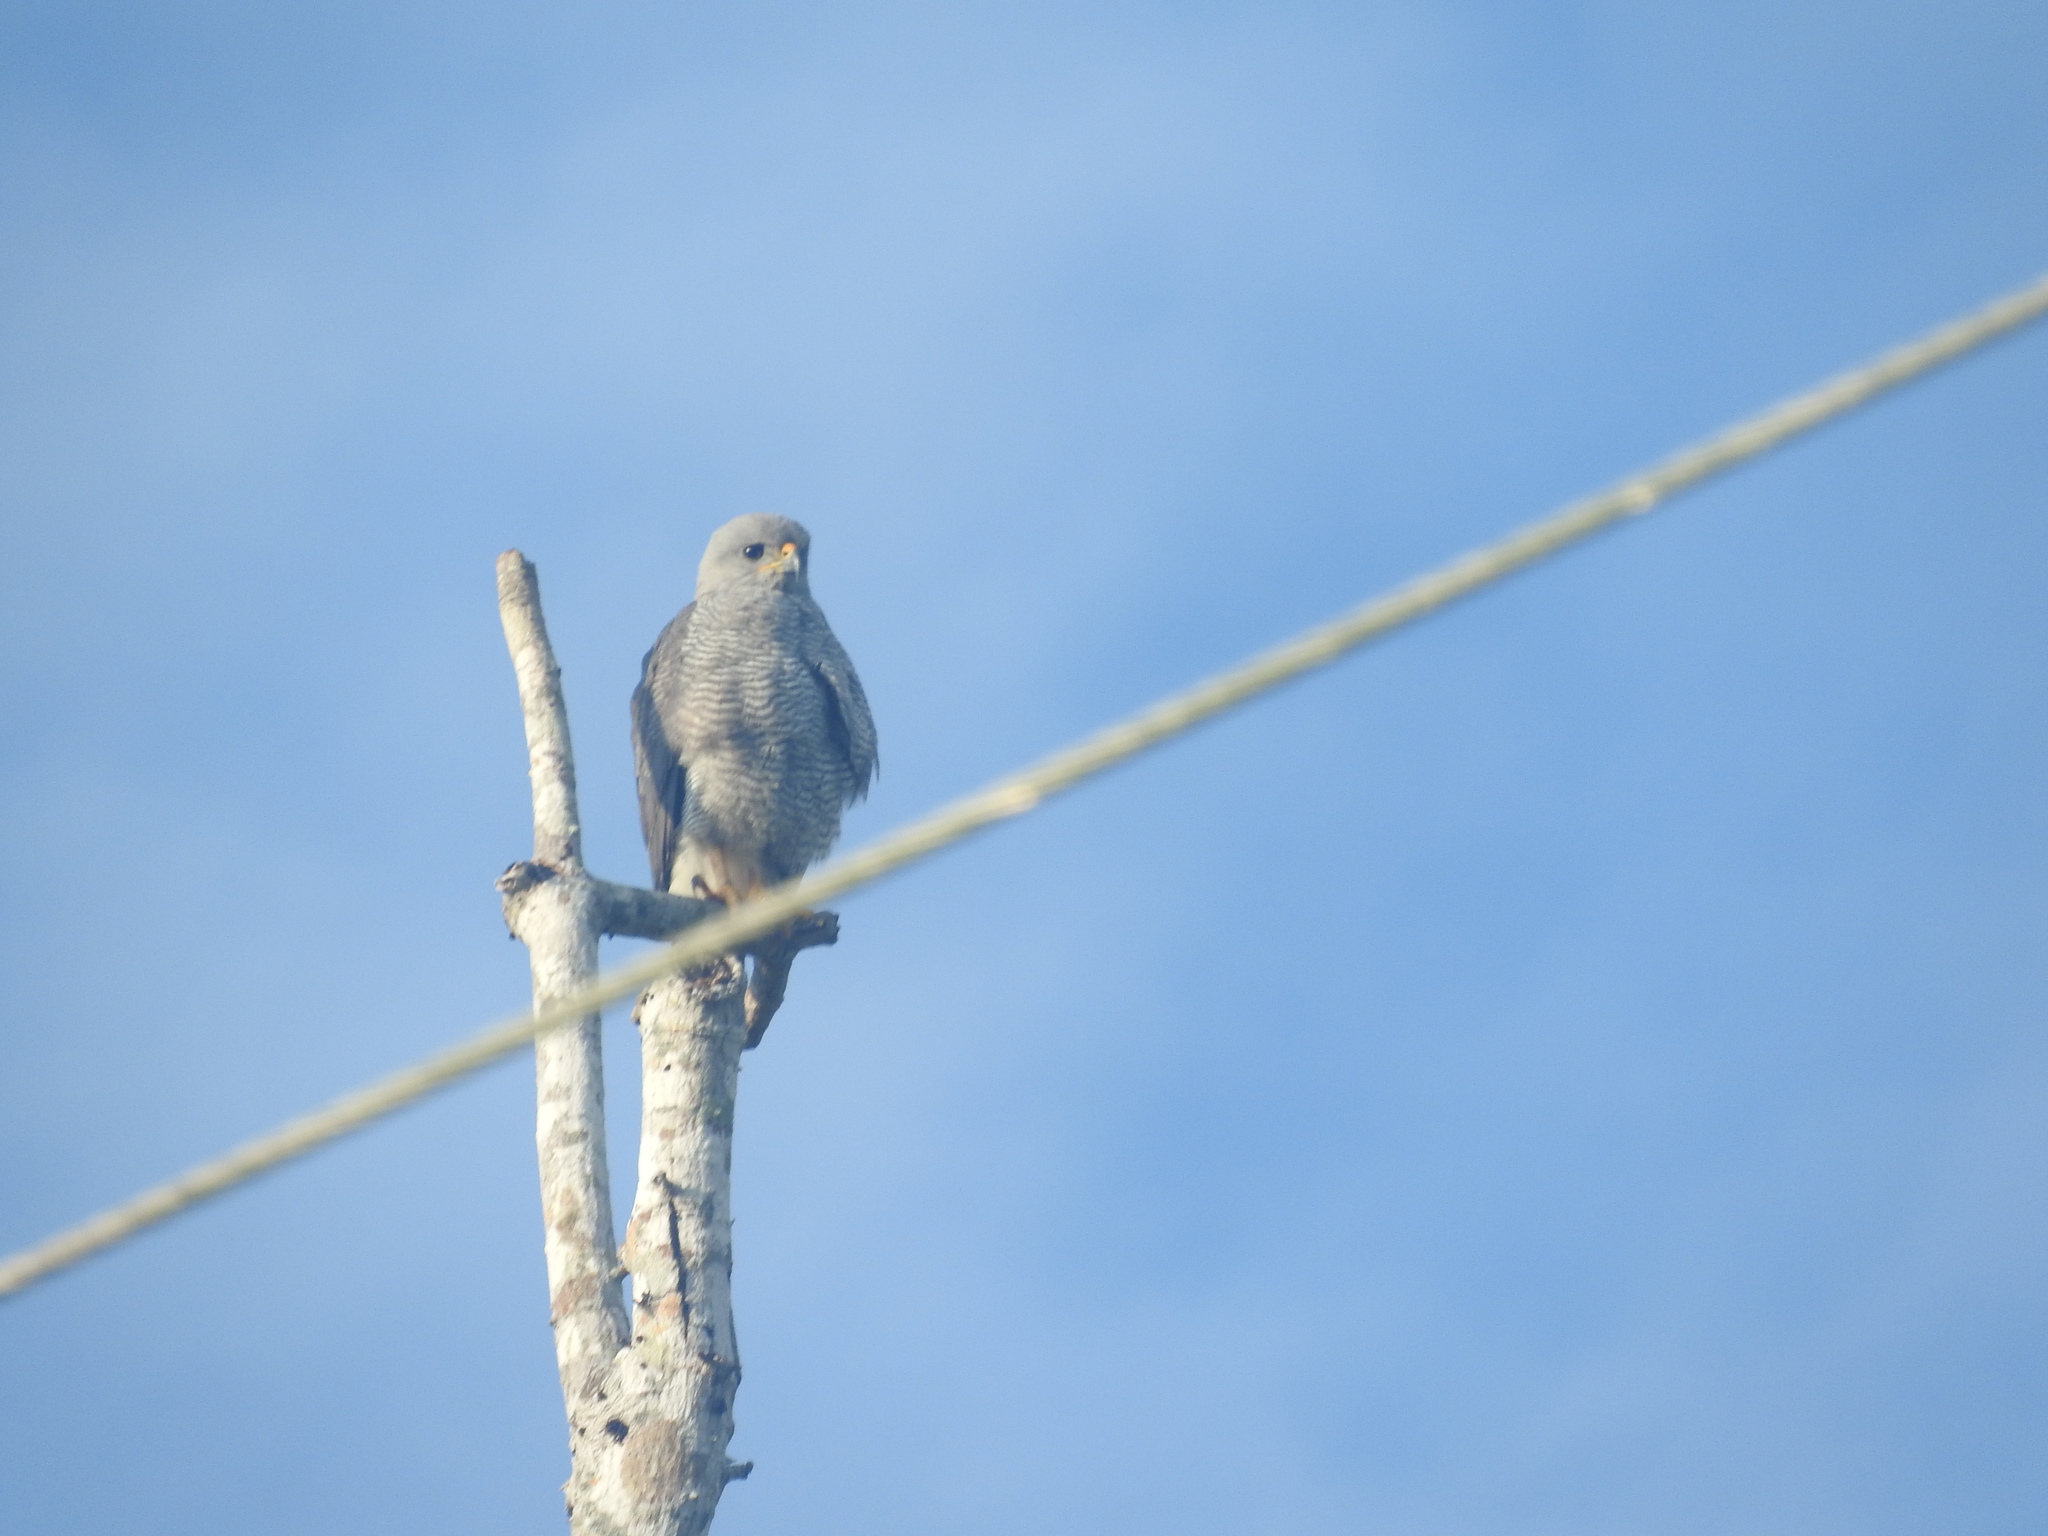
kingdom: Animalia
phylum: Chordata
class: Aves
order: Accipitriformes
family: Accipitridae
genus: Buteo
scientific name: Buteo nitidus
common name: Grey-lined hawk
